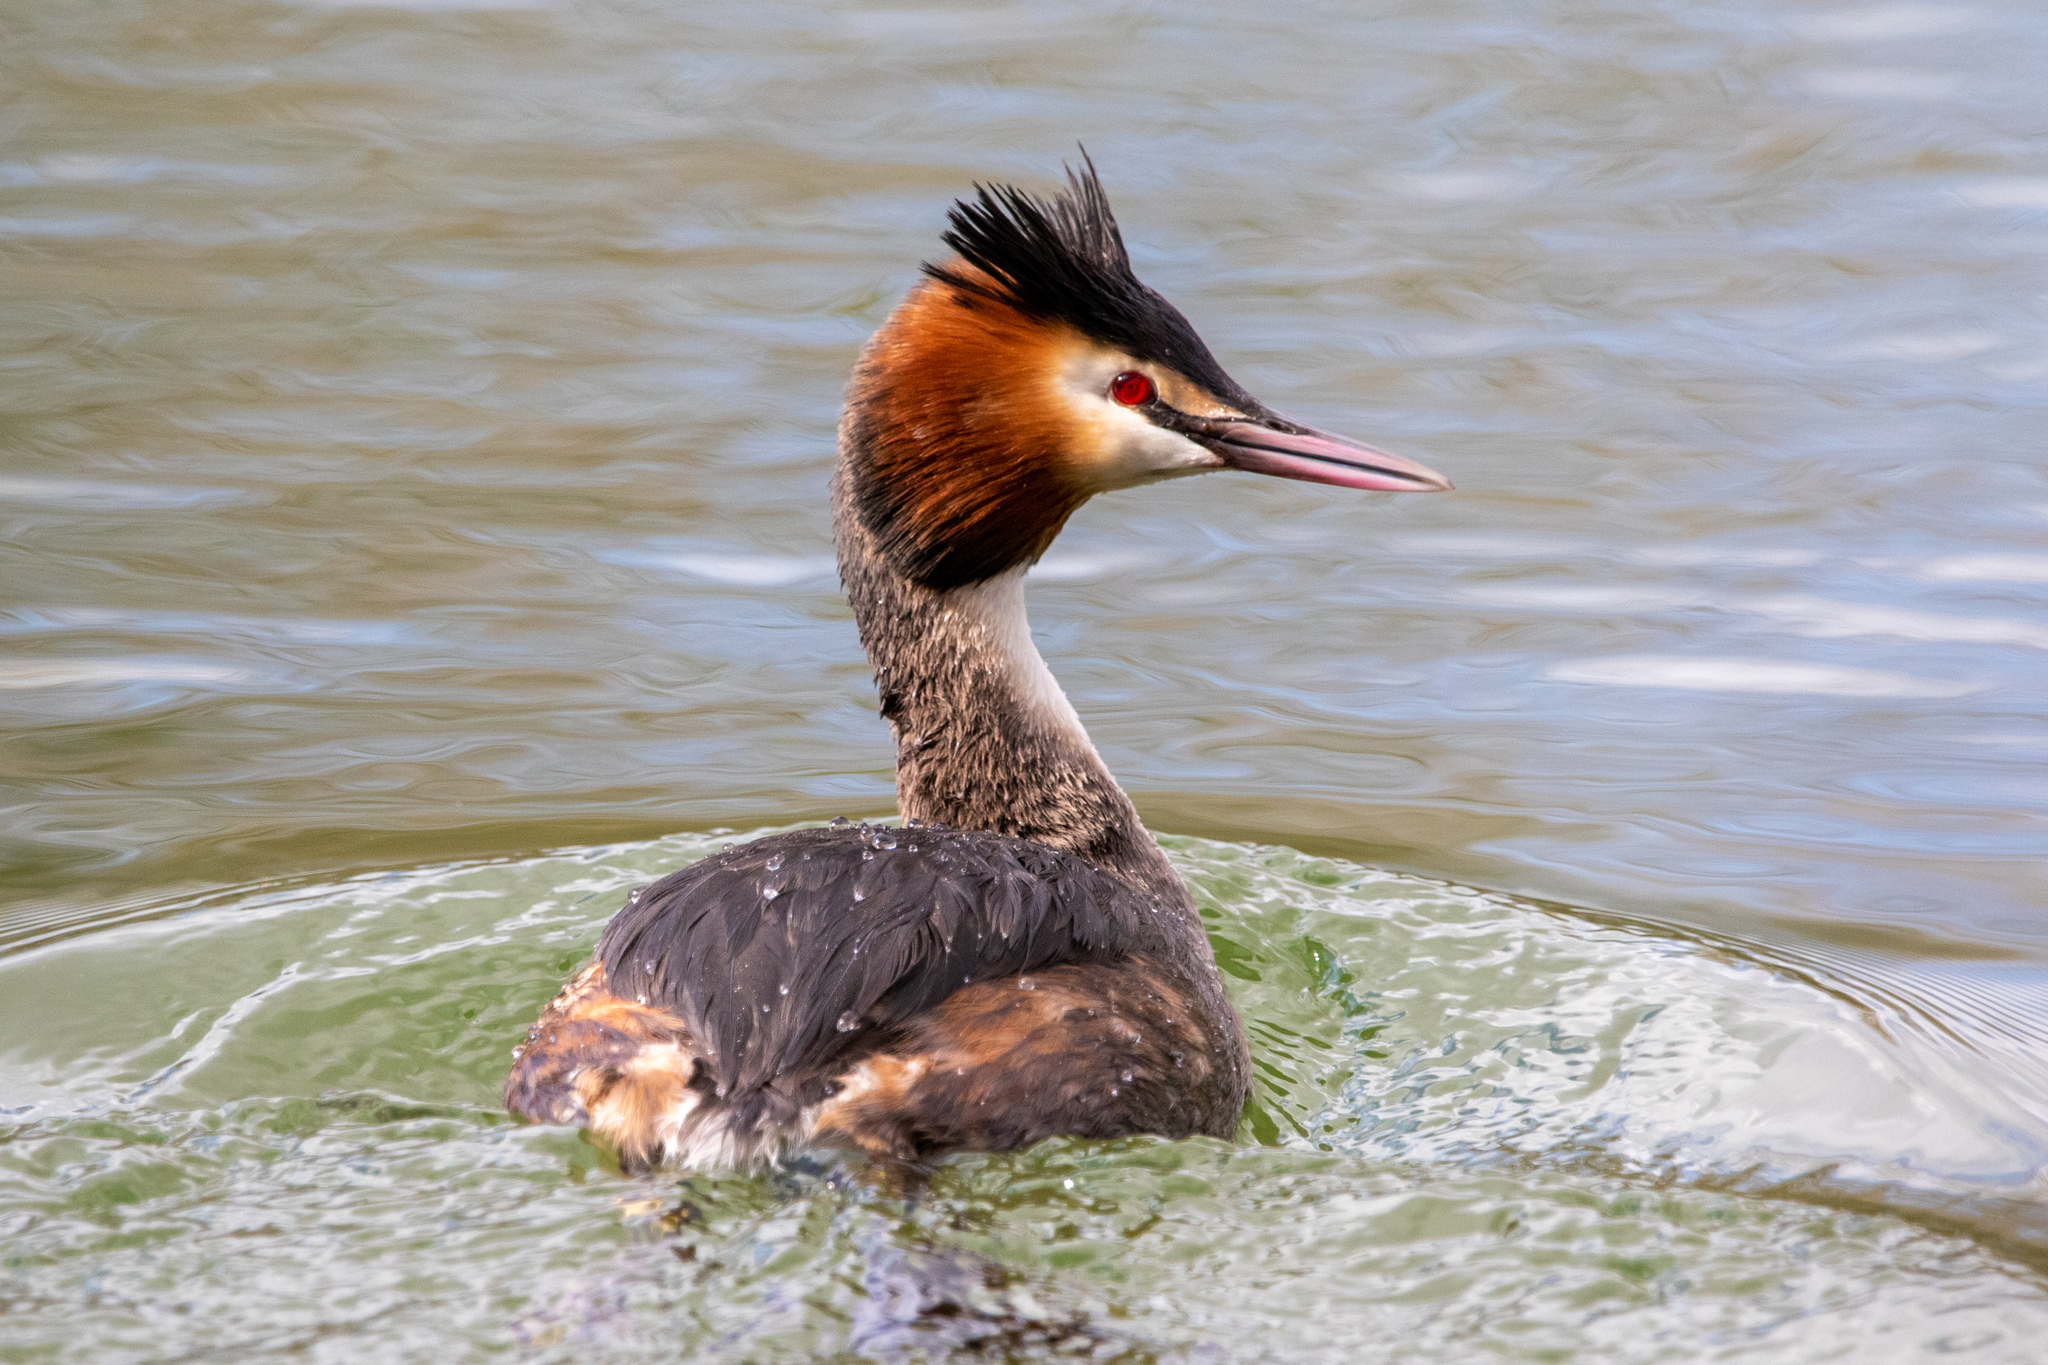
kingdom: Animalia
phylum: Chordata
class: Aves
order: Podicipediformes
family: Podicipedidae
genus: Podiceps
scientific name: Podiceps cristatus
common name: Great crested grebe
